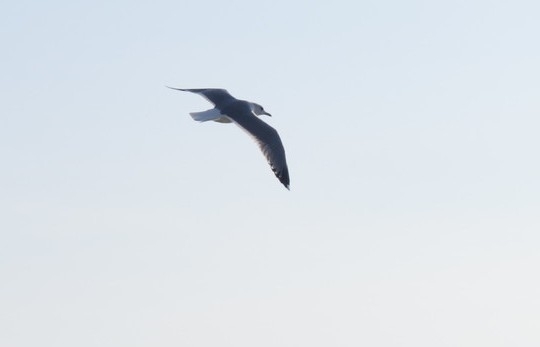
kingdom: Animalia
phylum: Chordata
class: Aves
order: Charadriiformes
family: Laridae
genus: Larus
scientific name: Larus canus
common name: Mew gull
